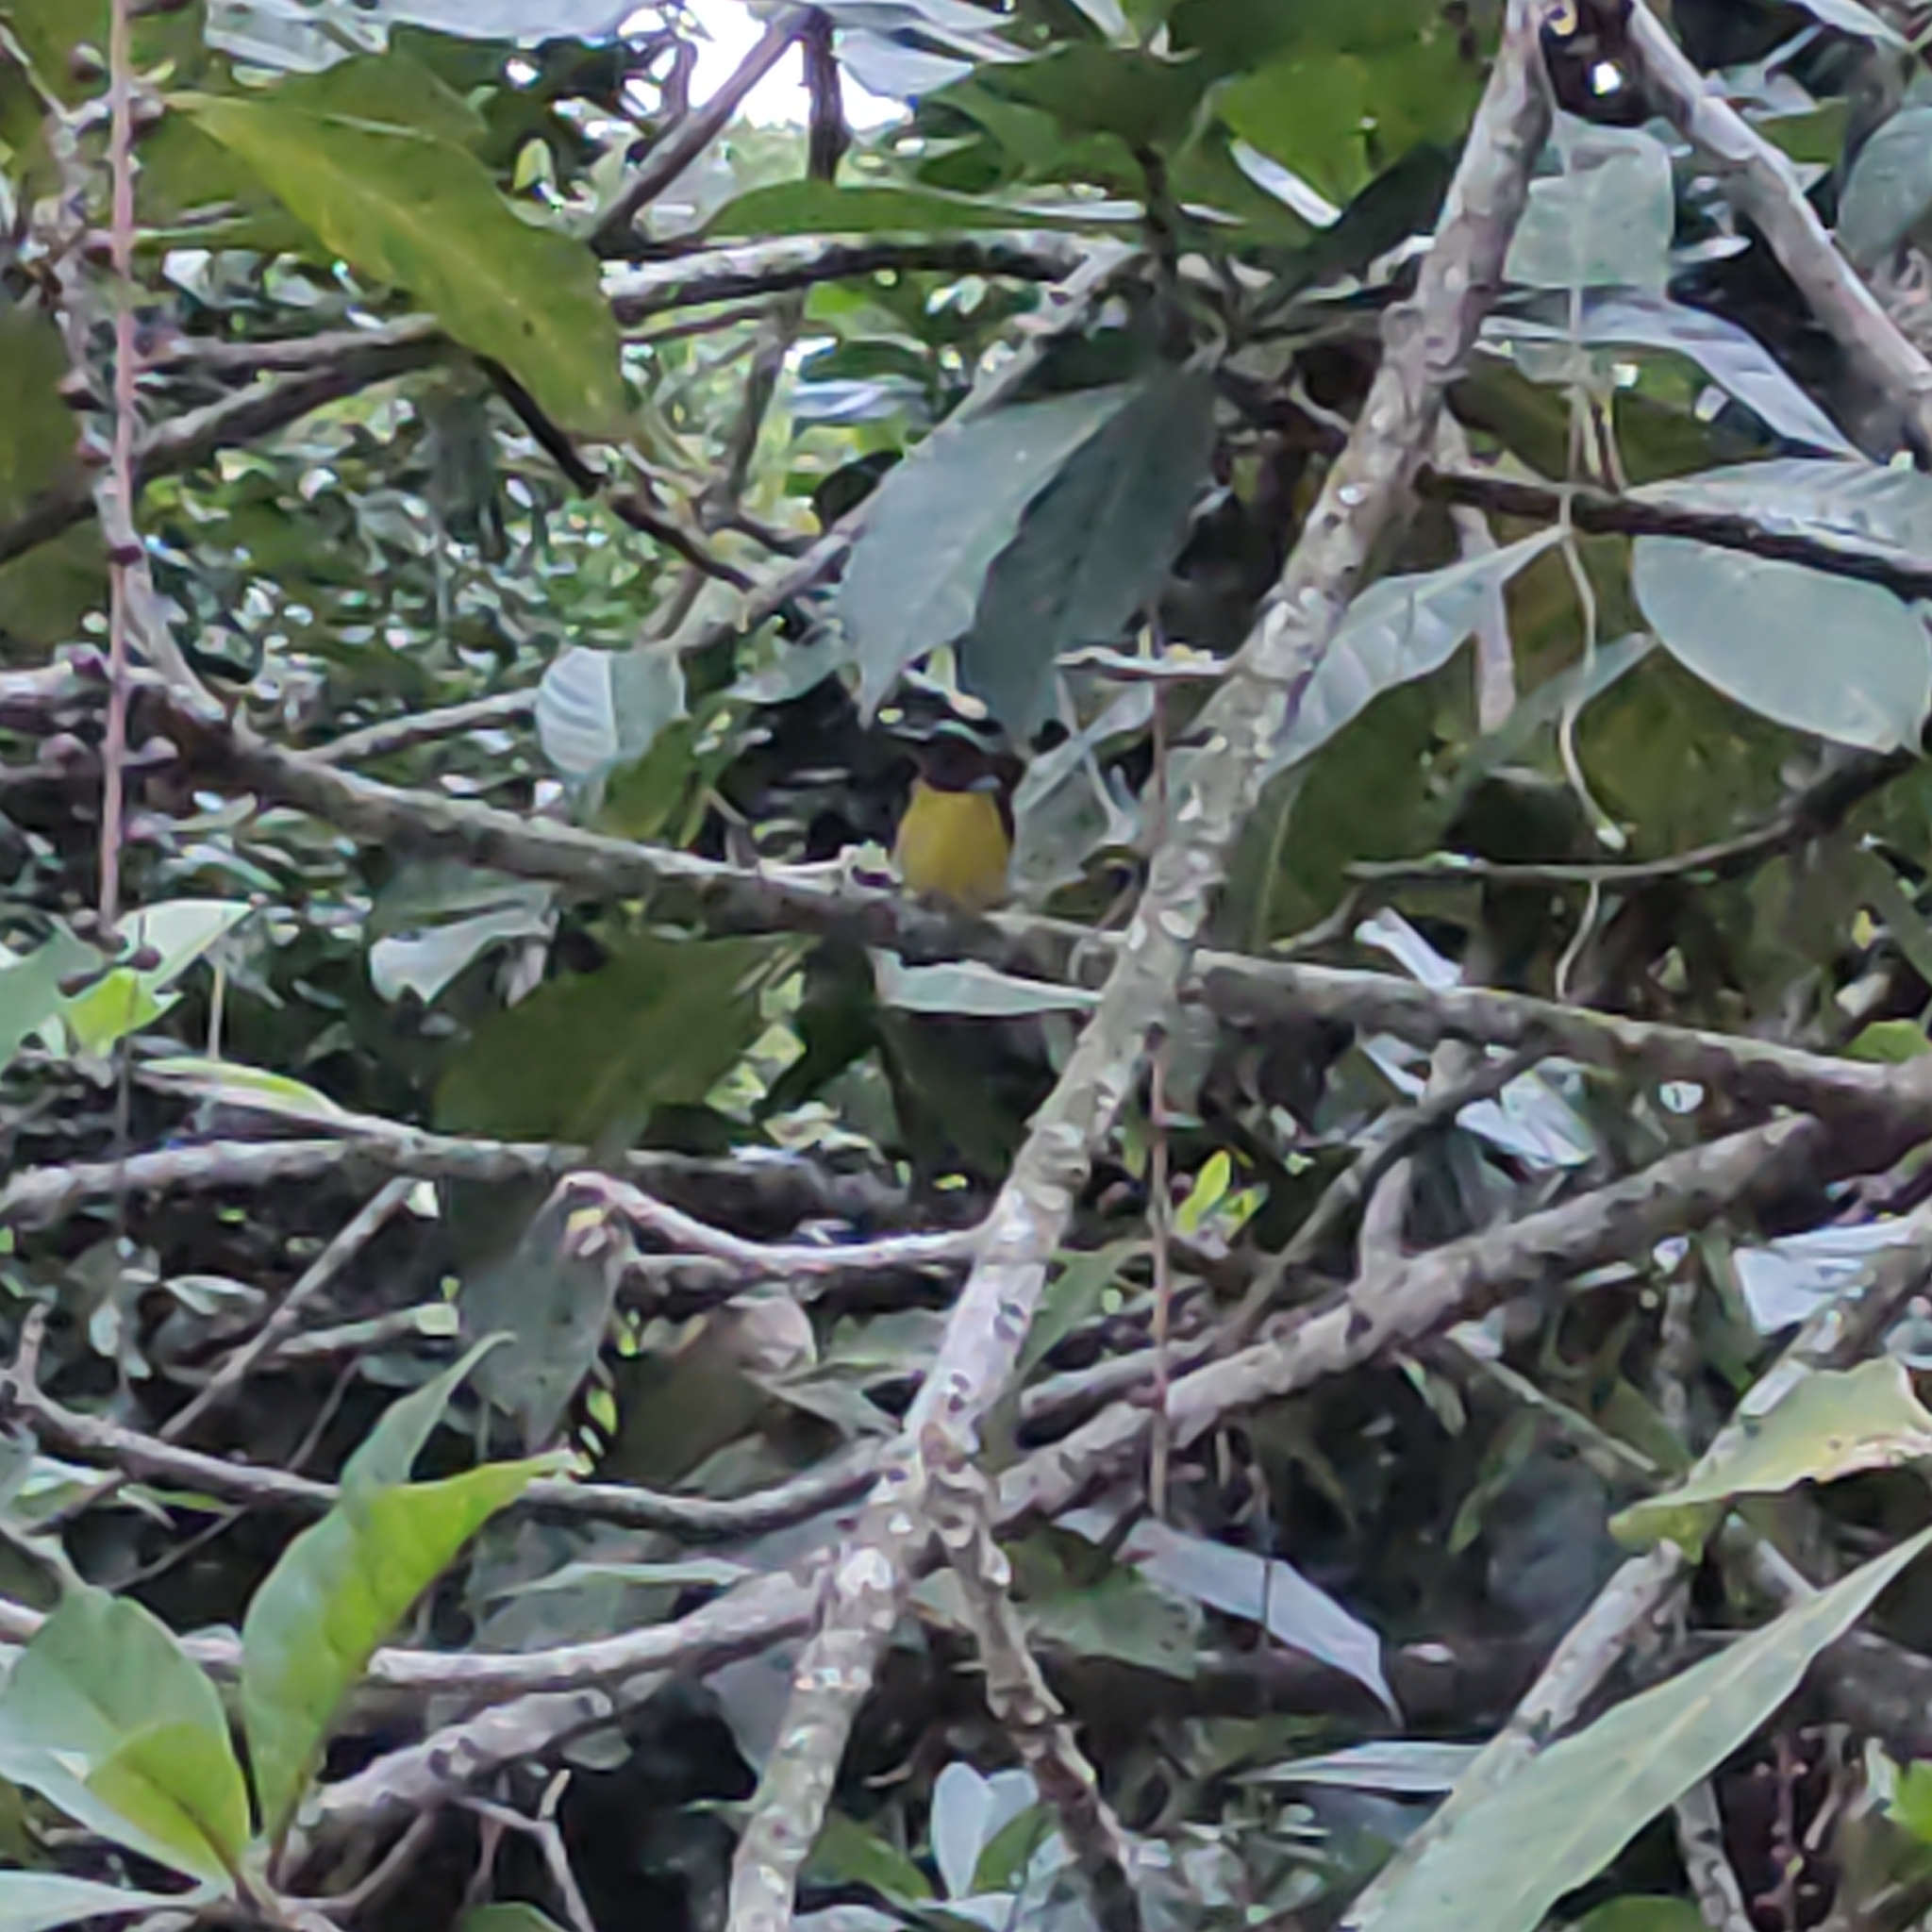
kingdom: Animalia
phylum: Chordata
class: Aves
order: Passeriformes
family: Nectariniidae
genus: Anthreptes
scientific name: Anthreptes malacensis
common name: Brown-throated sunbird
